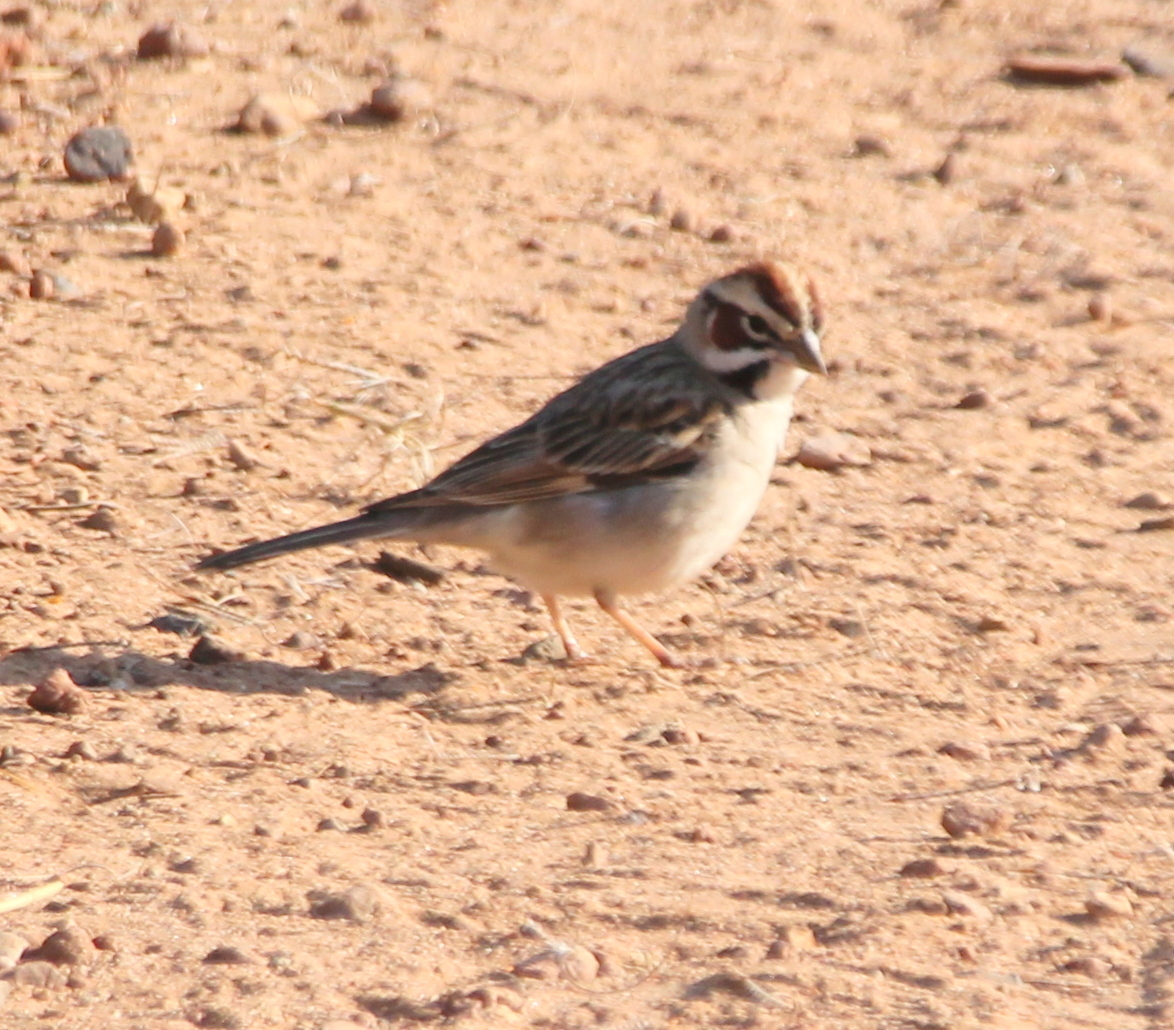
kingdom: Animalia
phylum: Chordata
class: Aves
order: Passeriformes
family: Passerellidae
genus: Chondestes
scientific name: Chondestes grammacus
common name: Lark sparrow
